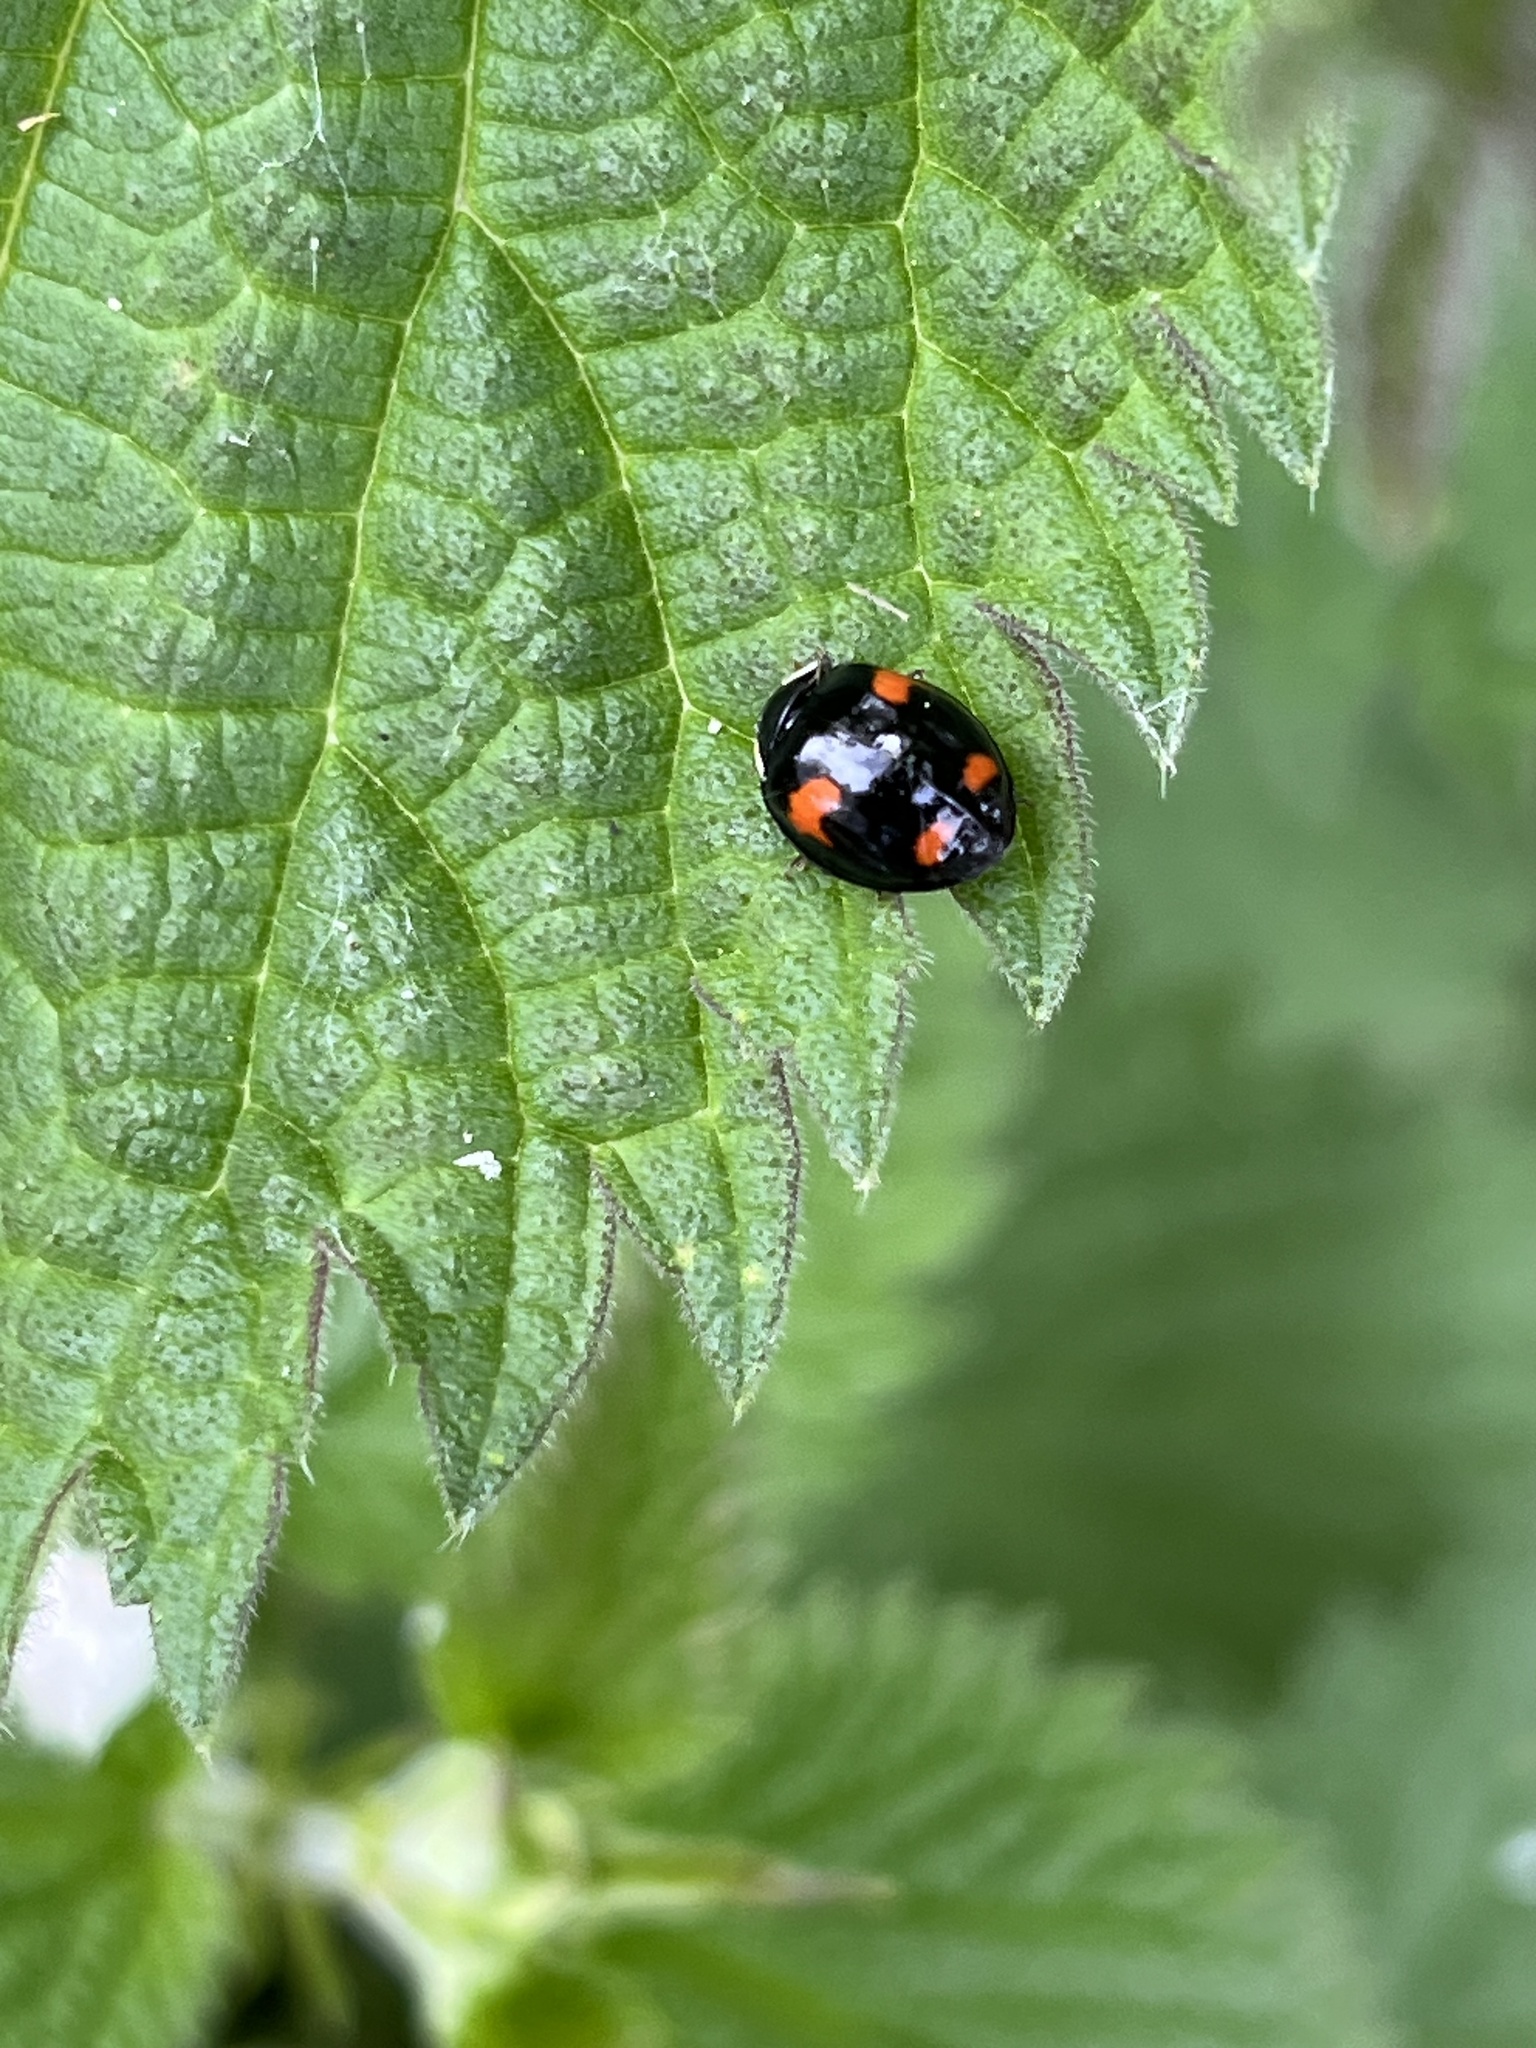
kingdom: Animalia
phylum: Arthropoda
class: Insecta
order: Coleoptera
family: Coccinellidae
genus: Harmonia
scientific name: Harmonia axyridis
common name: Harlequin ladybird
